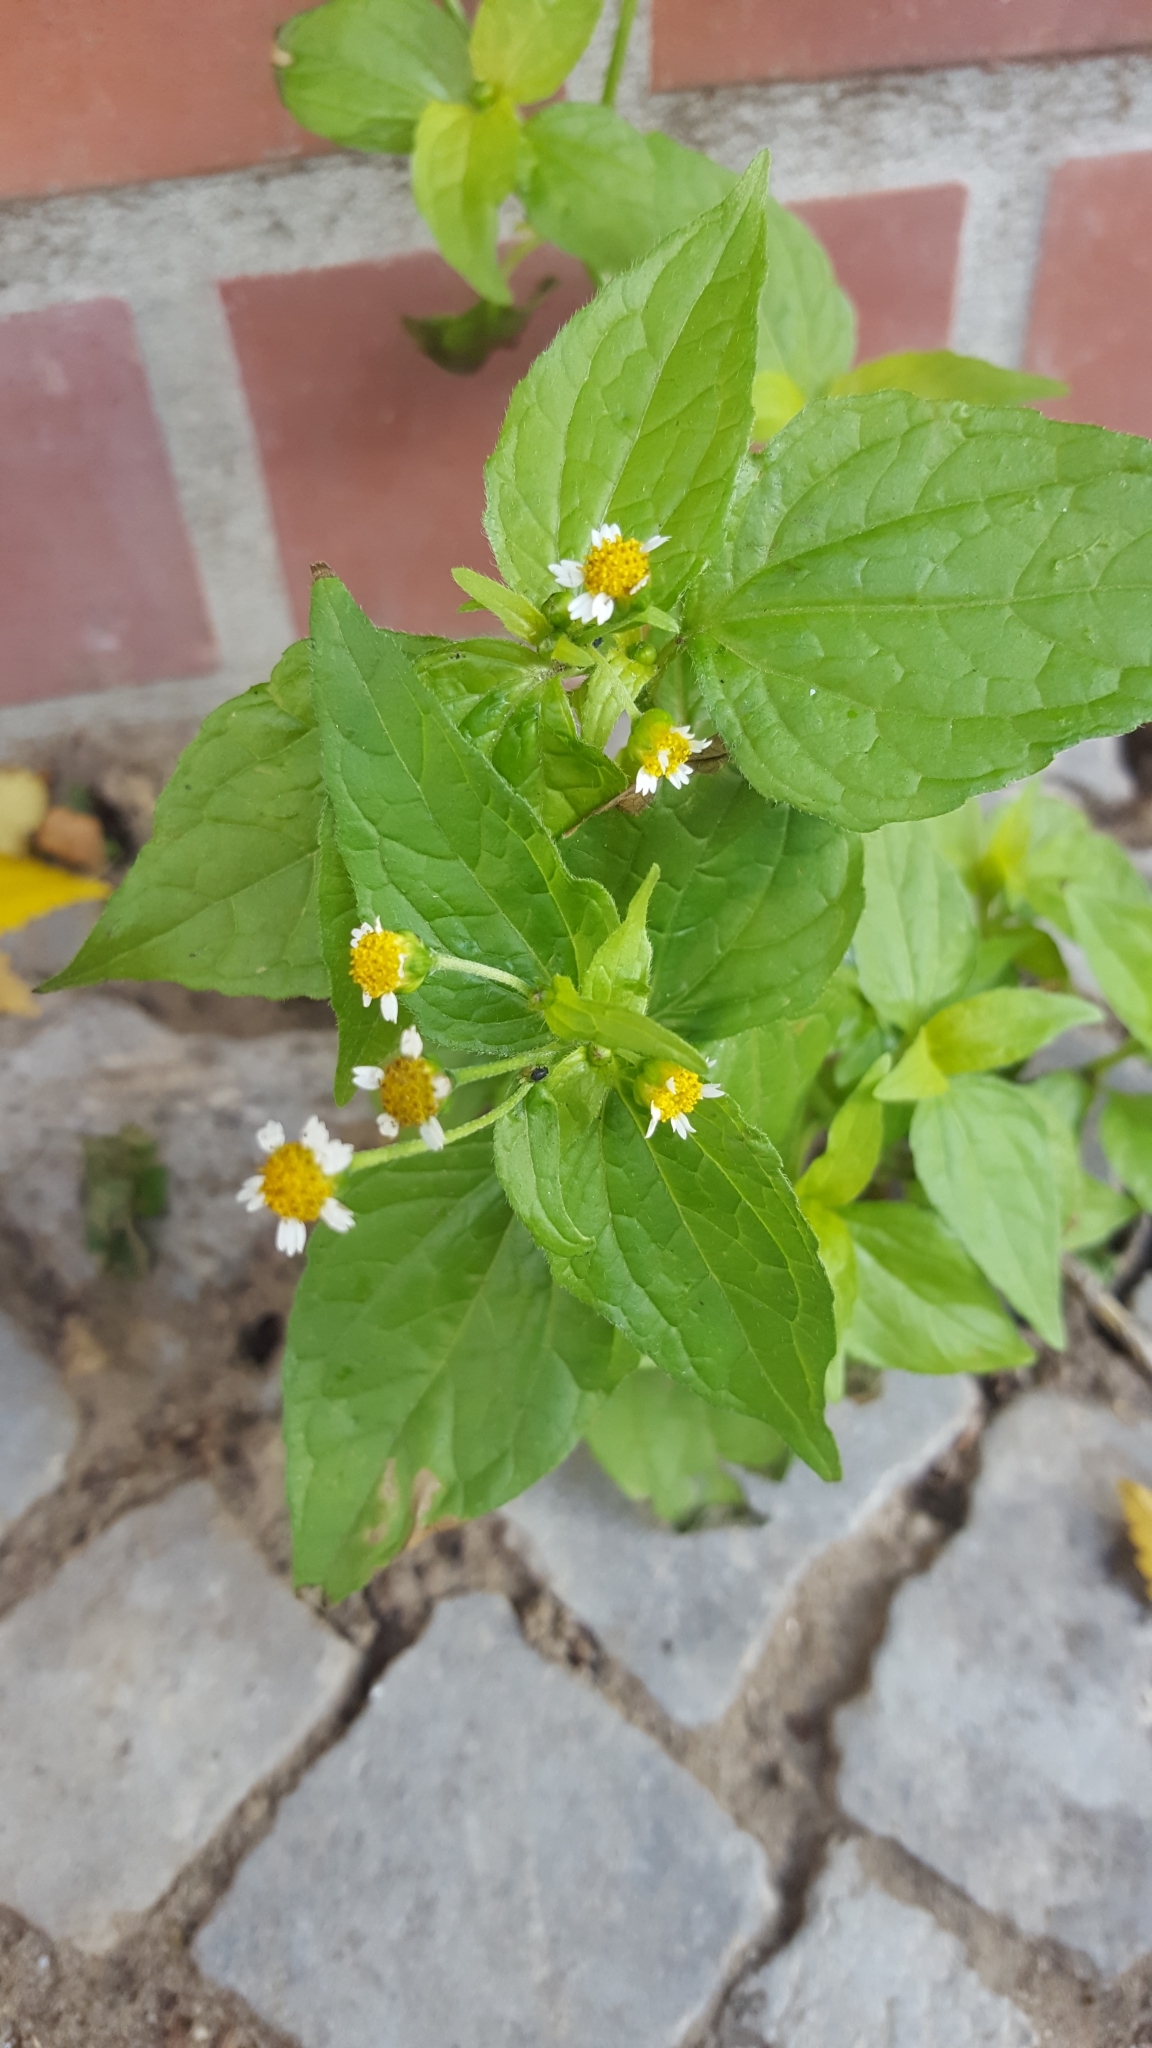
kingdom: Plantae
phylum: Tracheophyta
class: Magnoliopsida
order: Asterales
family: Asteraceae
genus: Galinsoga
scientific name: Galinsoga parviflora
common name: Gallant soldier
